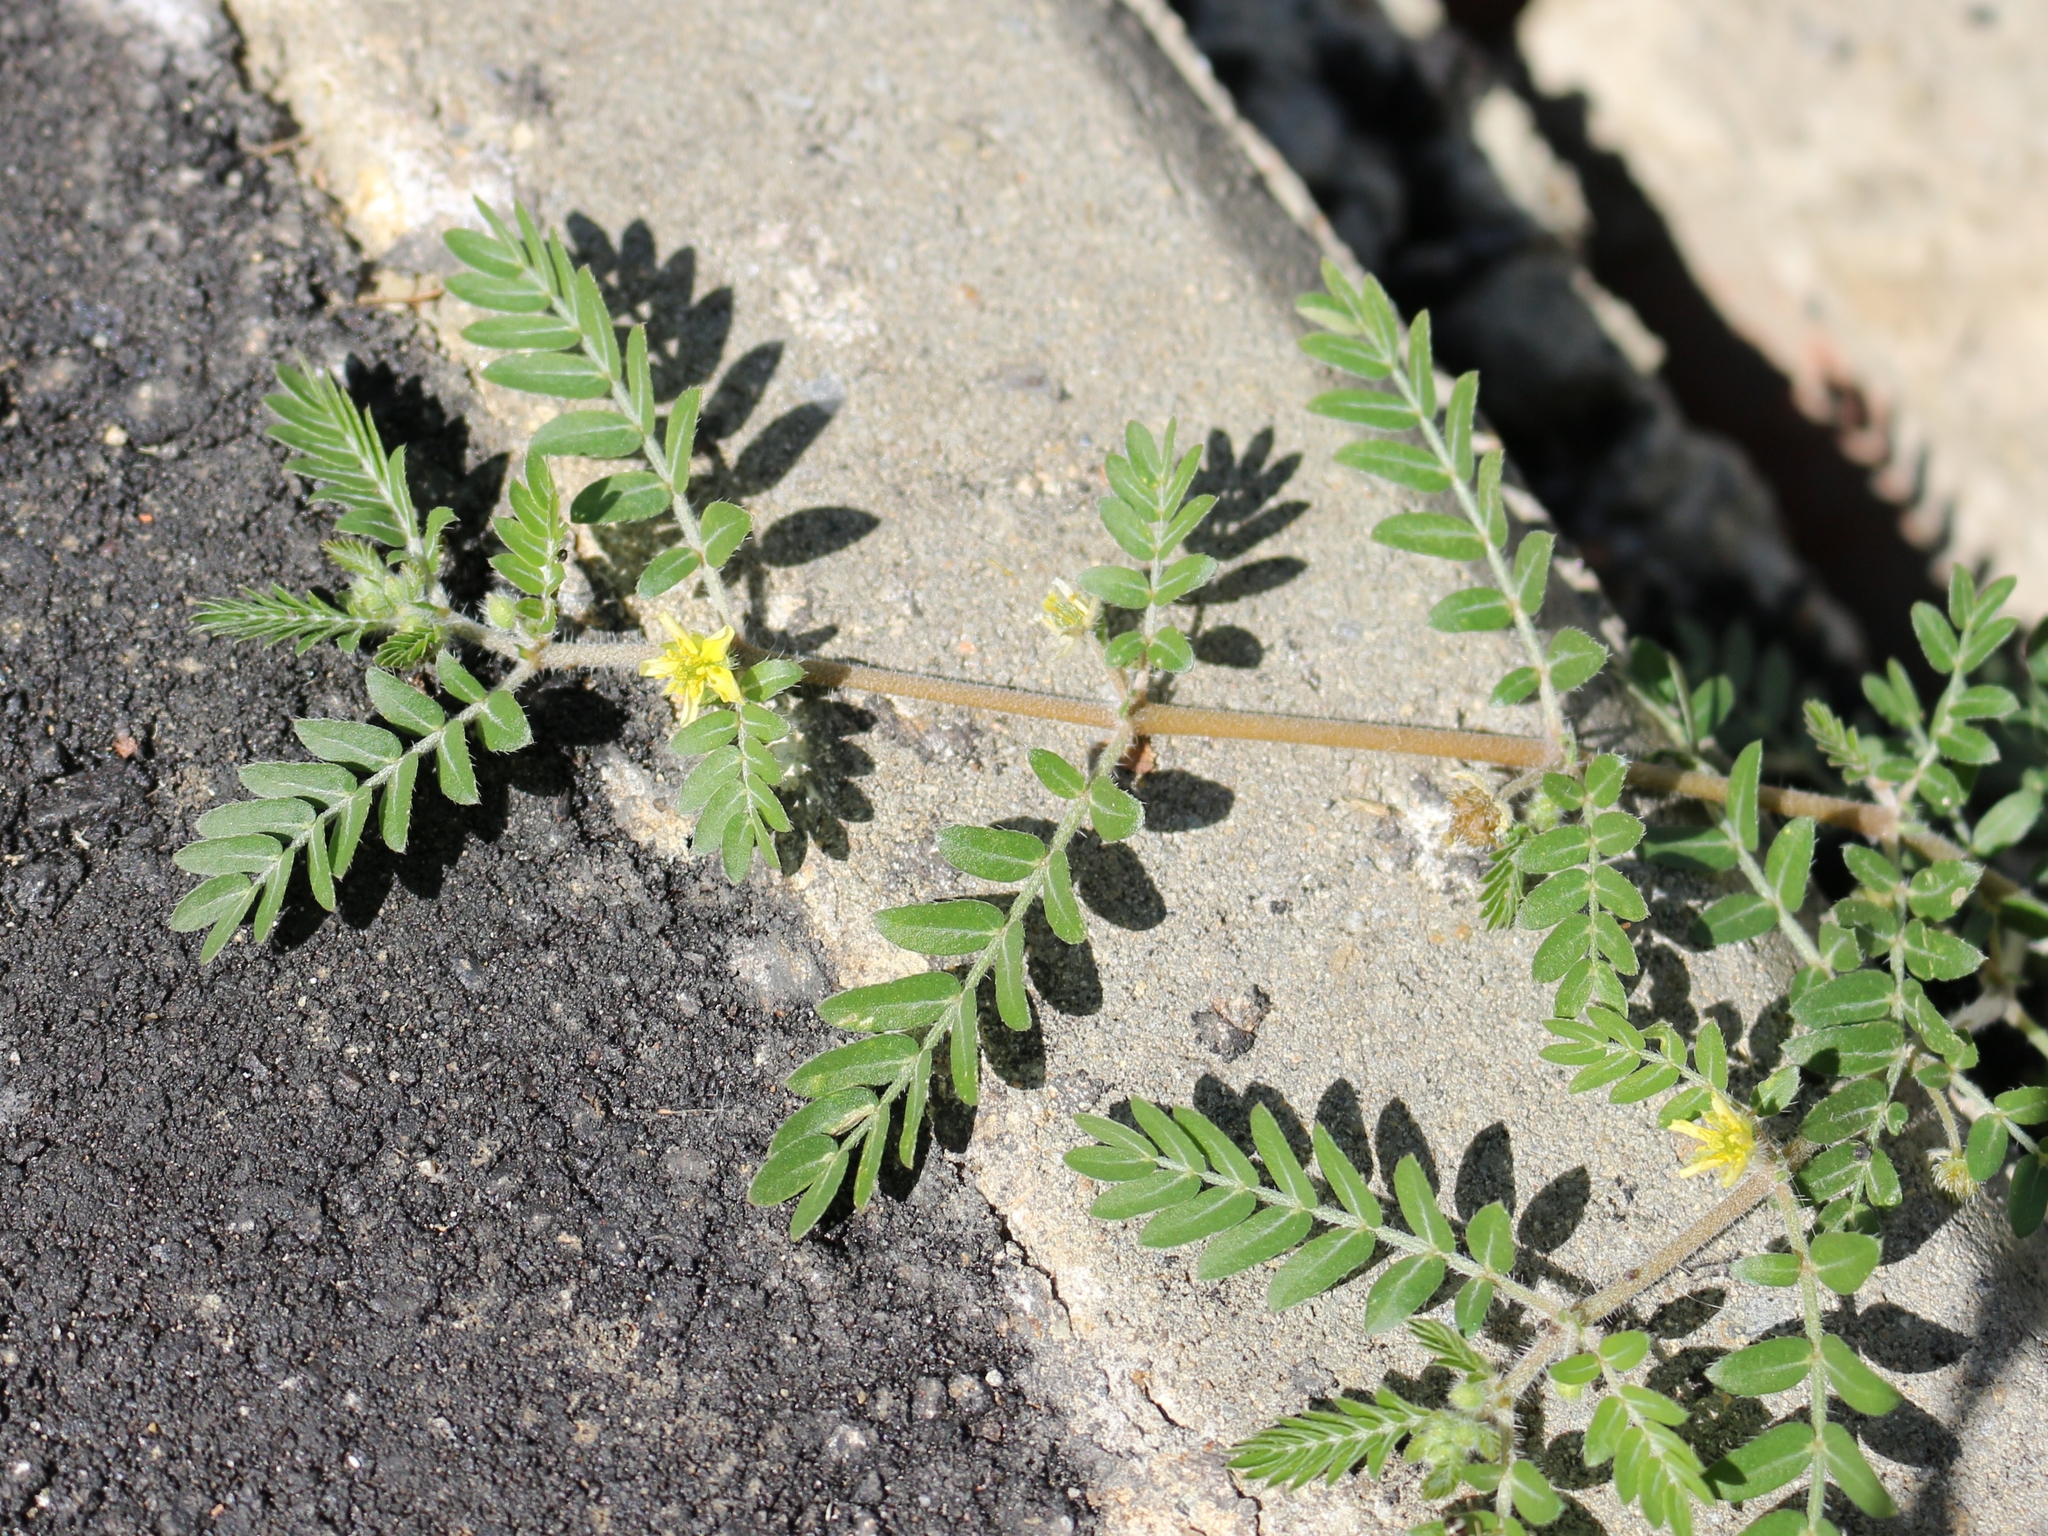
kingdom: Plantae
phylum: Tracheophyta
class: Magnoliopsida
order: Zygophyllales
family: Zygophyllaceae
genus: Tribulus
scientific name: Tribulus terrestris
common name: Puncturevine
